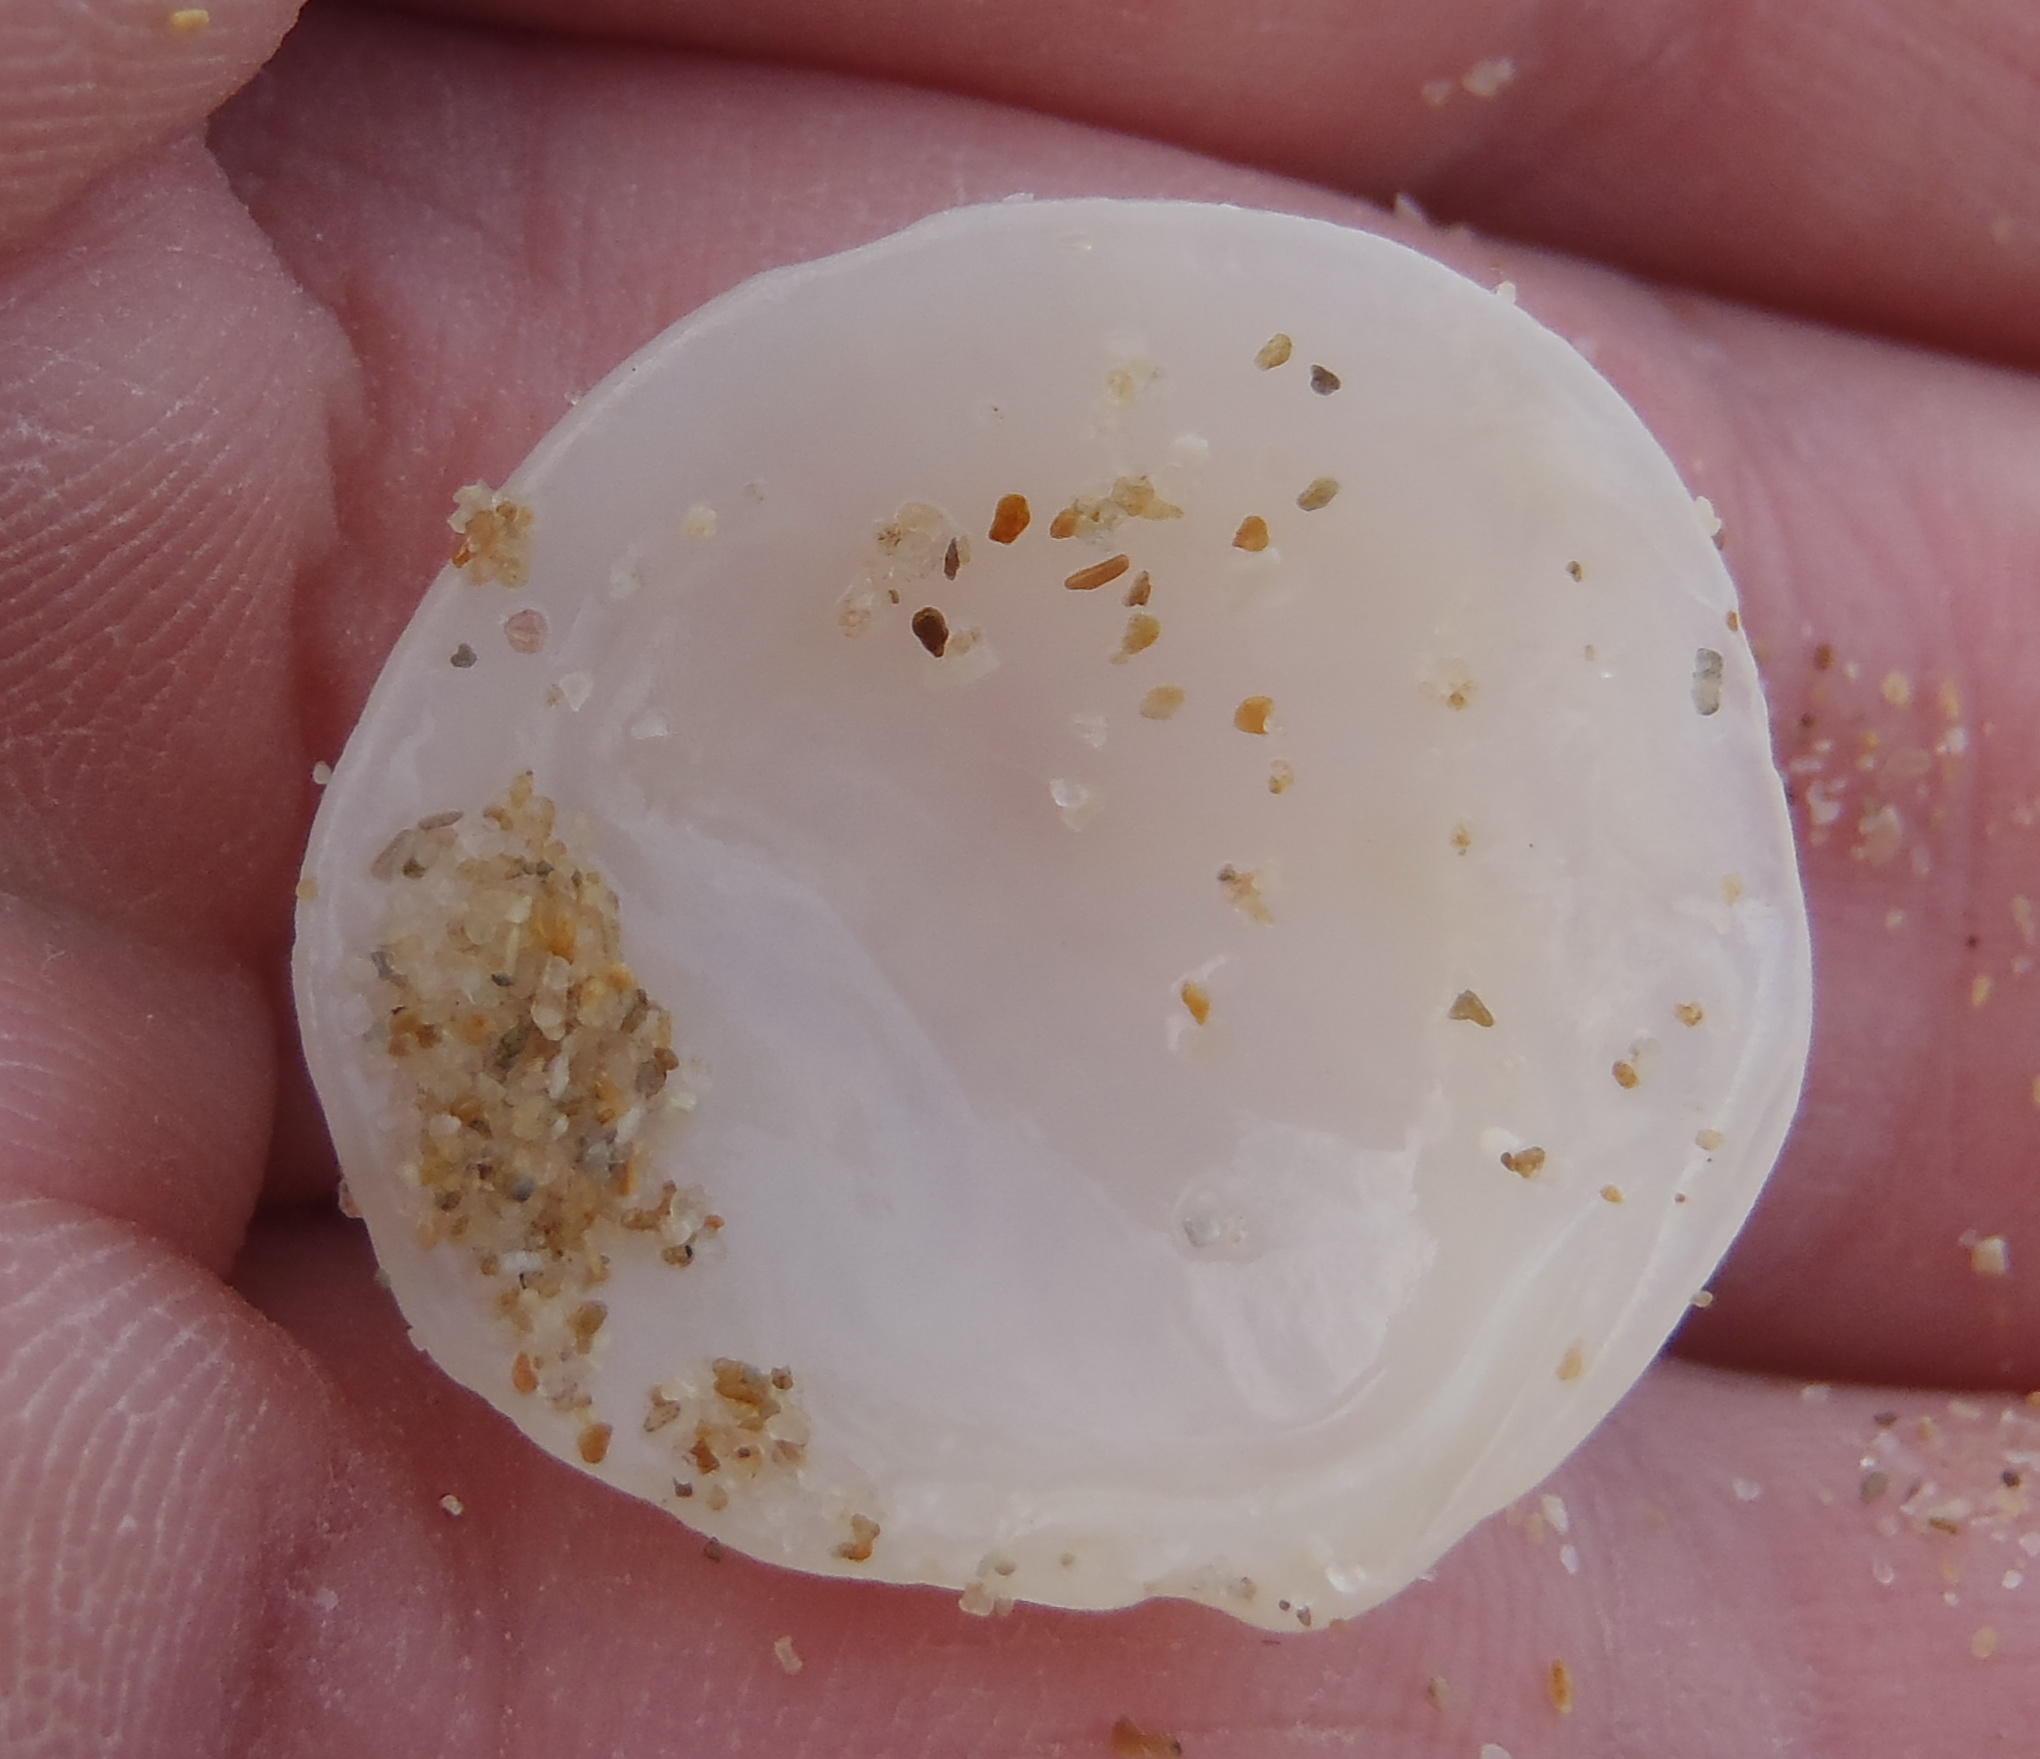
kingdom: Animalia
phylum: Mollusca
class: Bivalvia
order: Lucinida
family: Lucinidae
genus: Loripes
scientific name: Loripes clausus
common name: Smooth platter shell
